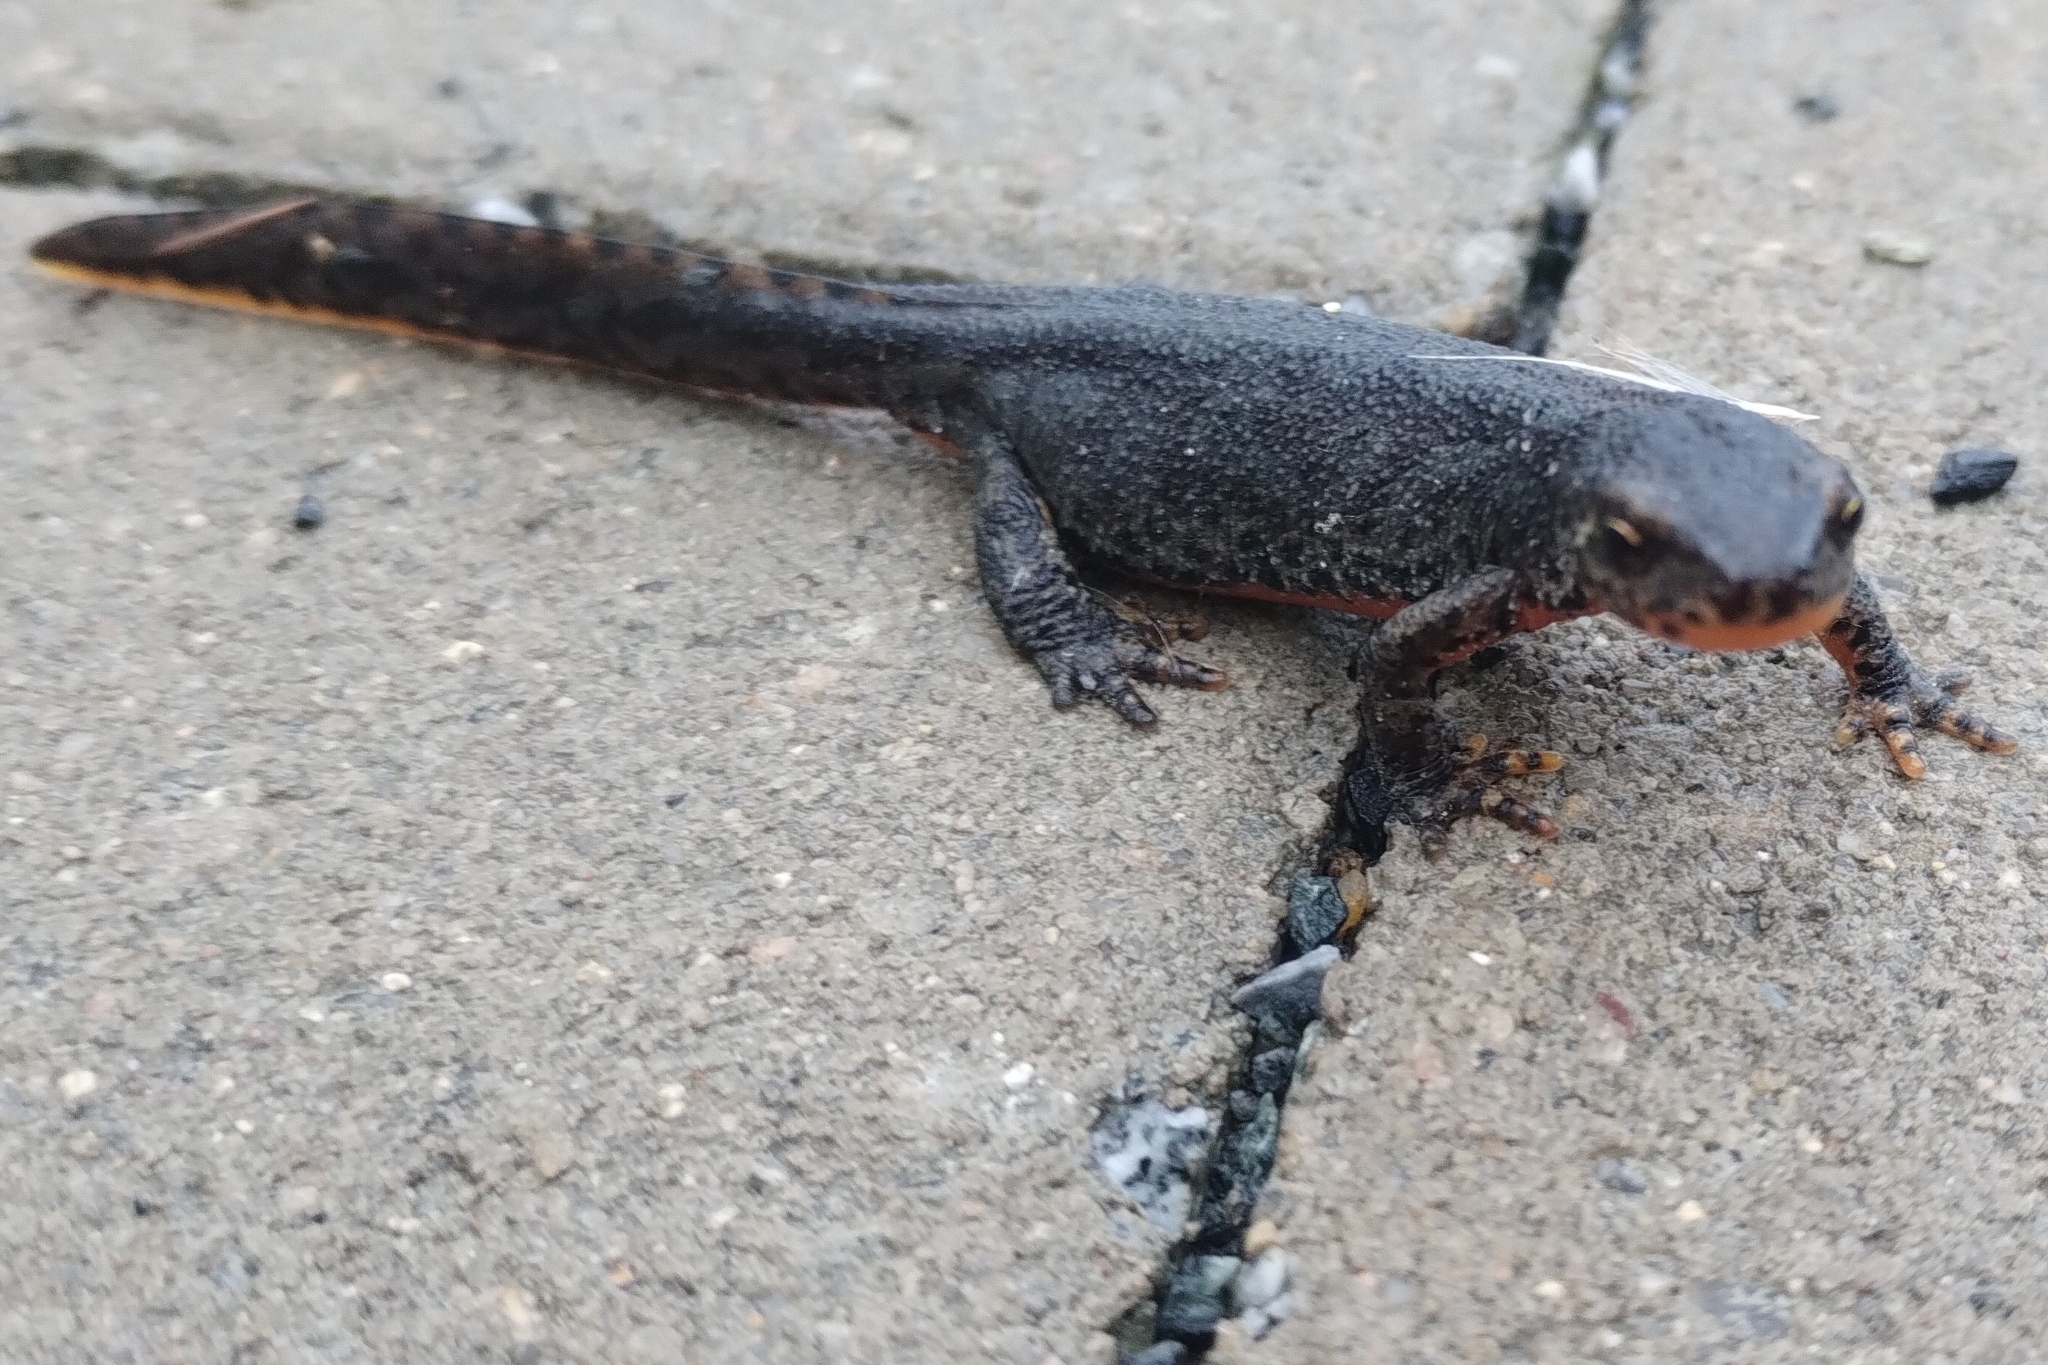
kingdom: Animalia
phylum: Chordata
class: Amphibia
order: Caudata
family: Salamandridae
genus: Ichthyosaura
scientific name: Ichthyosaura alpestris
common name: Alpine newt
